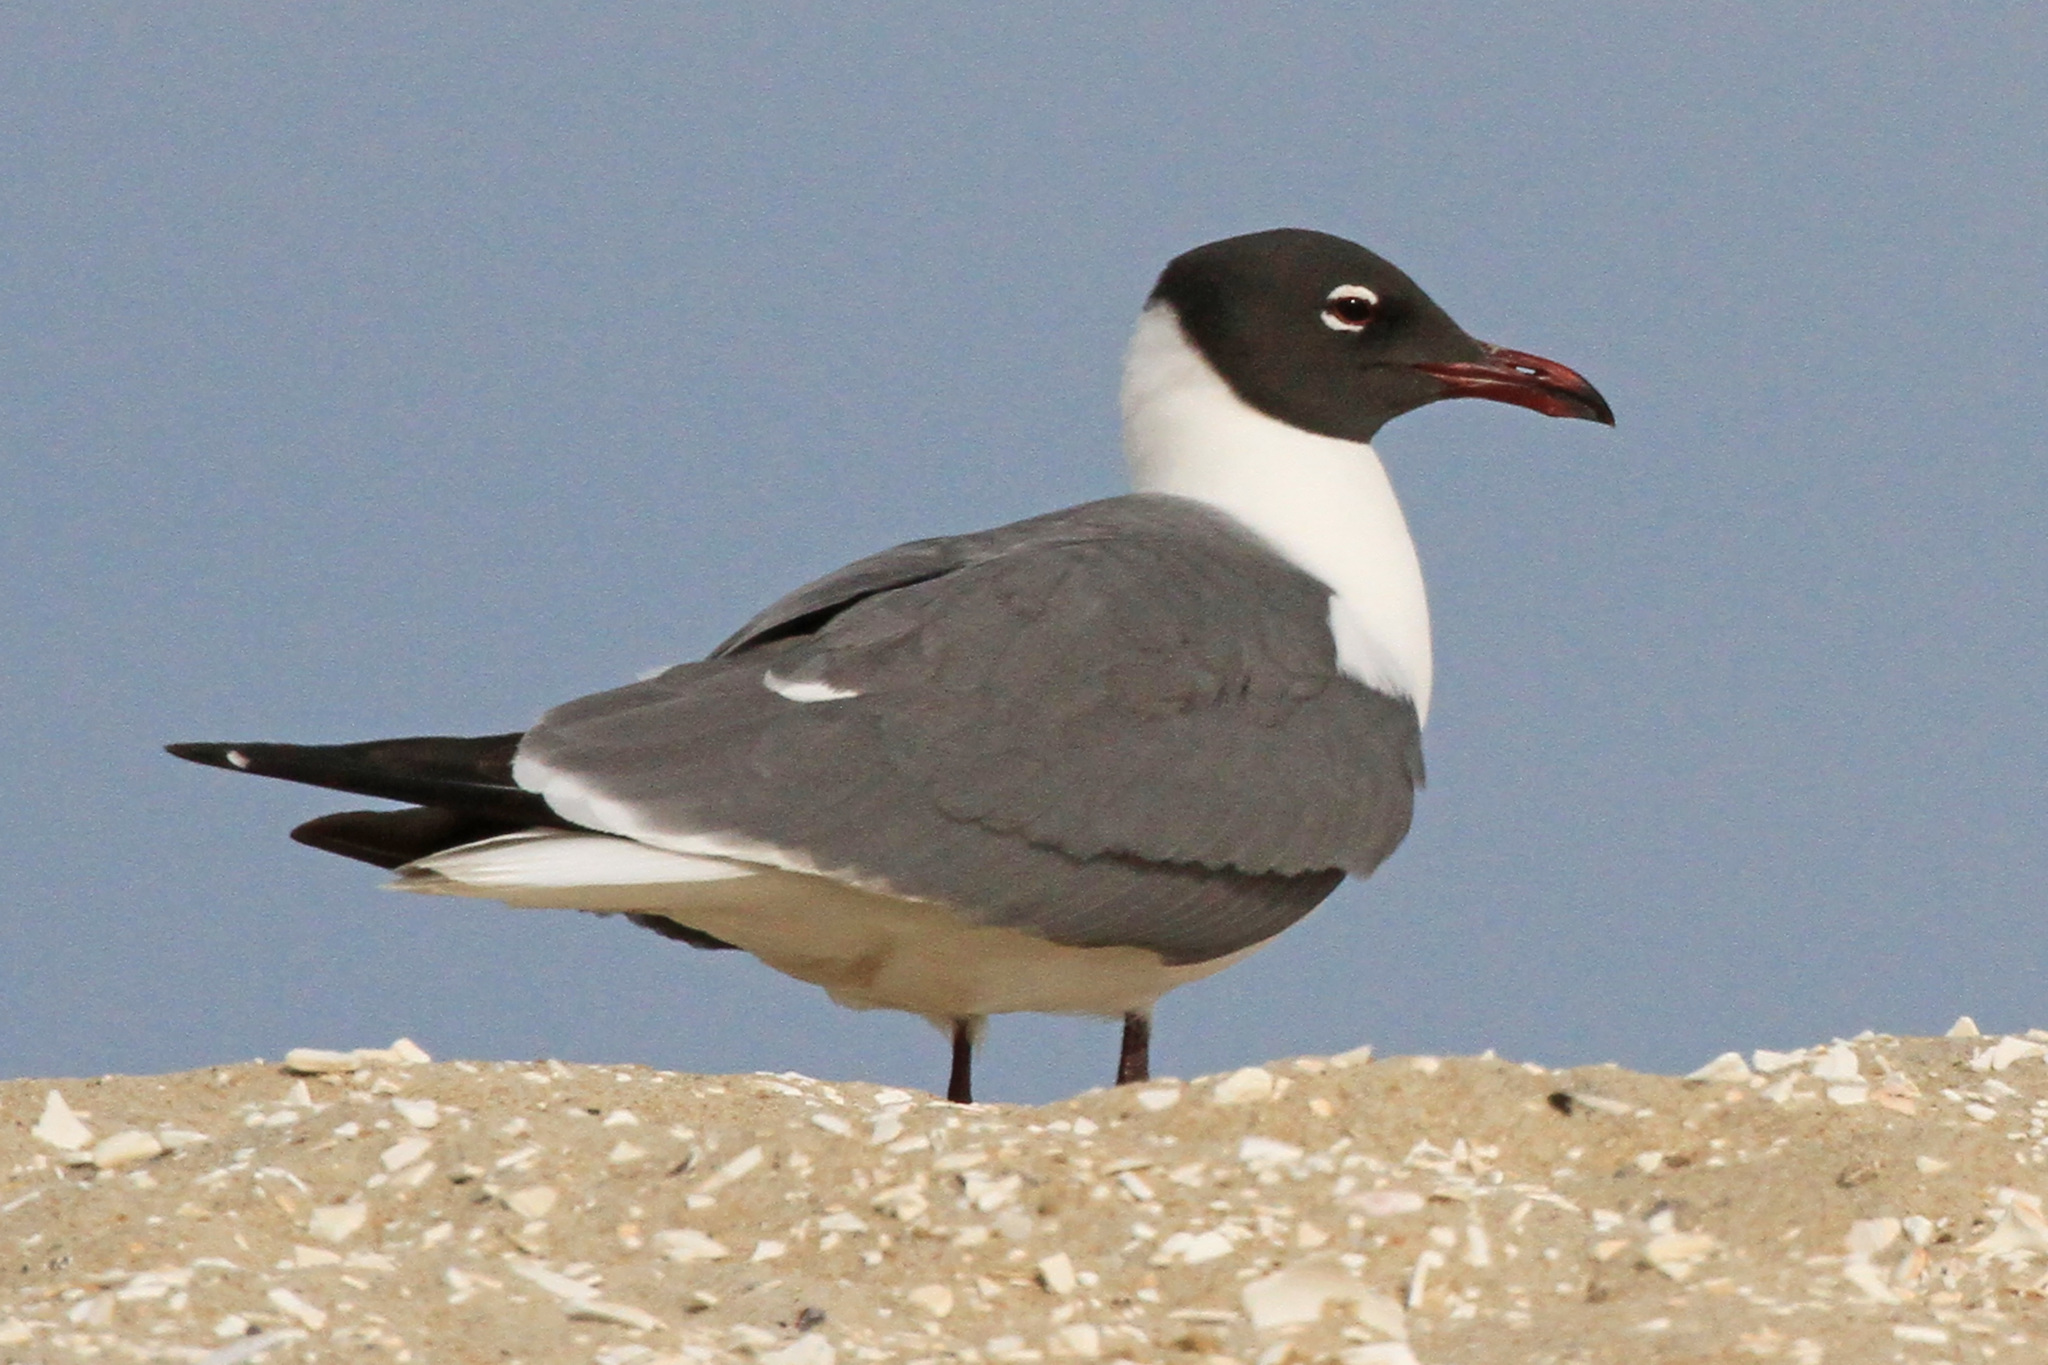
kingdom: Animalia
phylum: Chordata
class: Aves
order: Charadriiformes
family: Laridae
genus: Leucophaeus
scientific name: Leucophaeus atricilla
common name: Laughing gull
